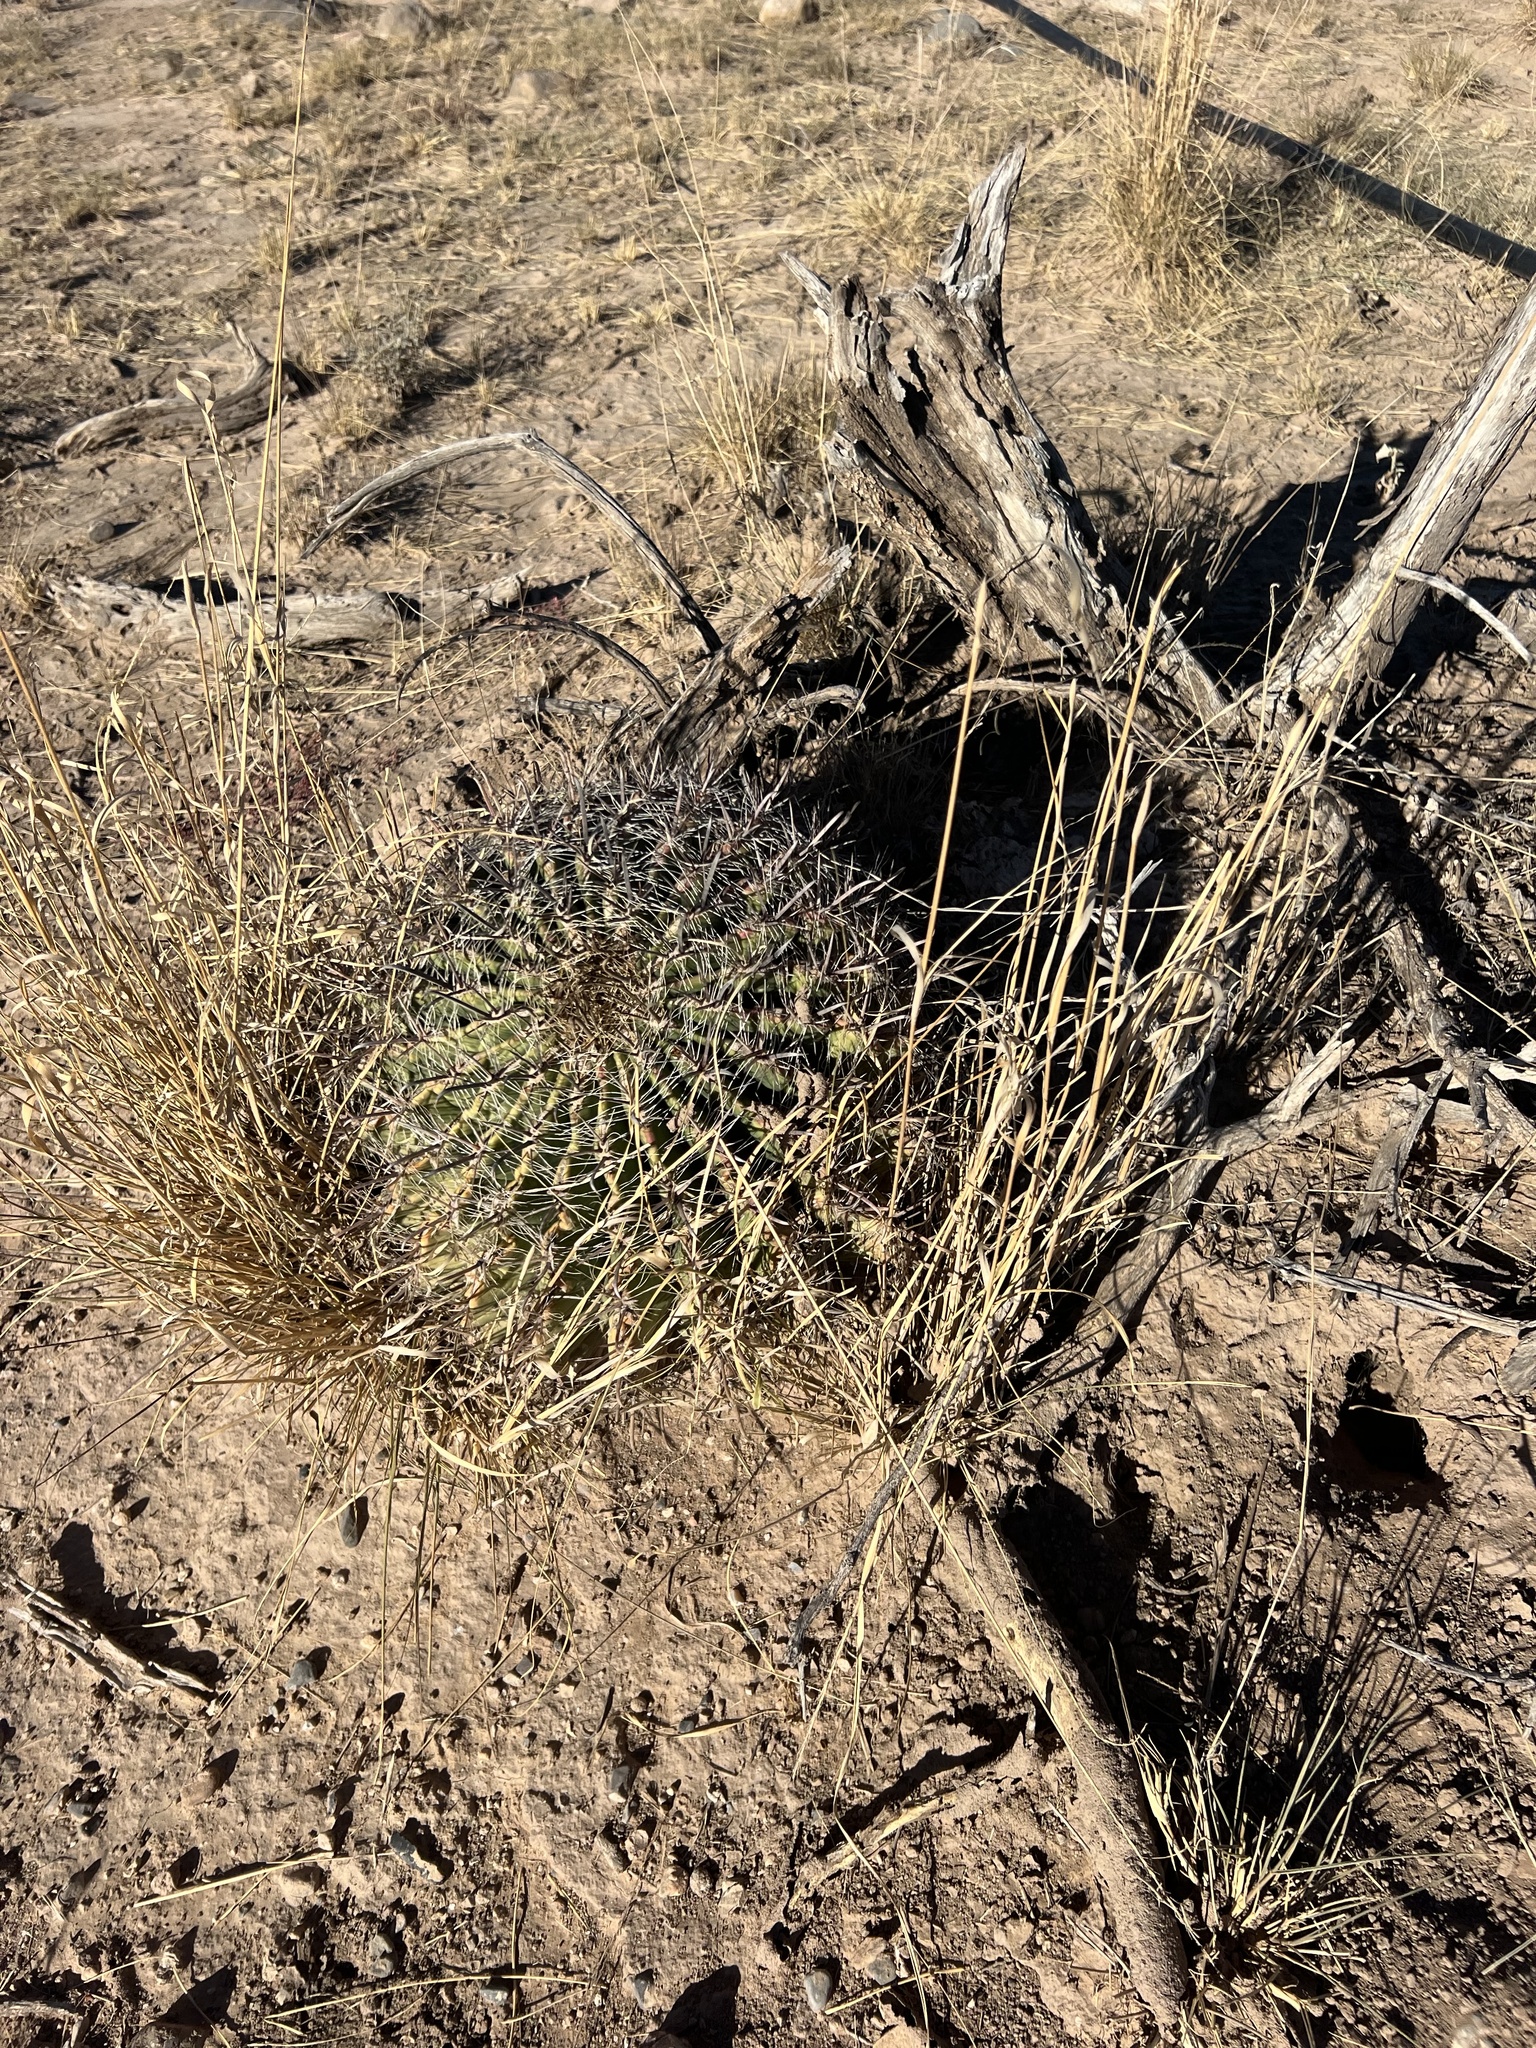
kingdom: Plantae
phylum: Tracheophyta
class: Magnoliopsida
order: Caryophyllales
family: Cactaceae
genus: Ferocactus
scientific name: Ferocactus wislizeni
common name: Candy barrel cactus
